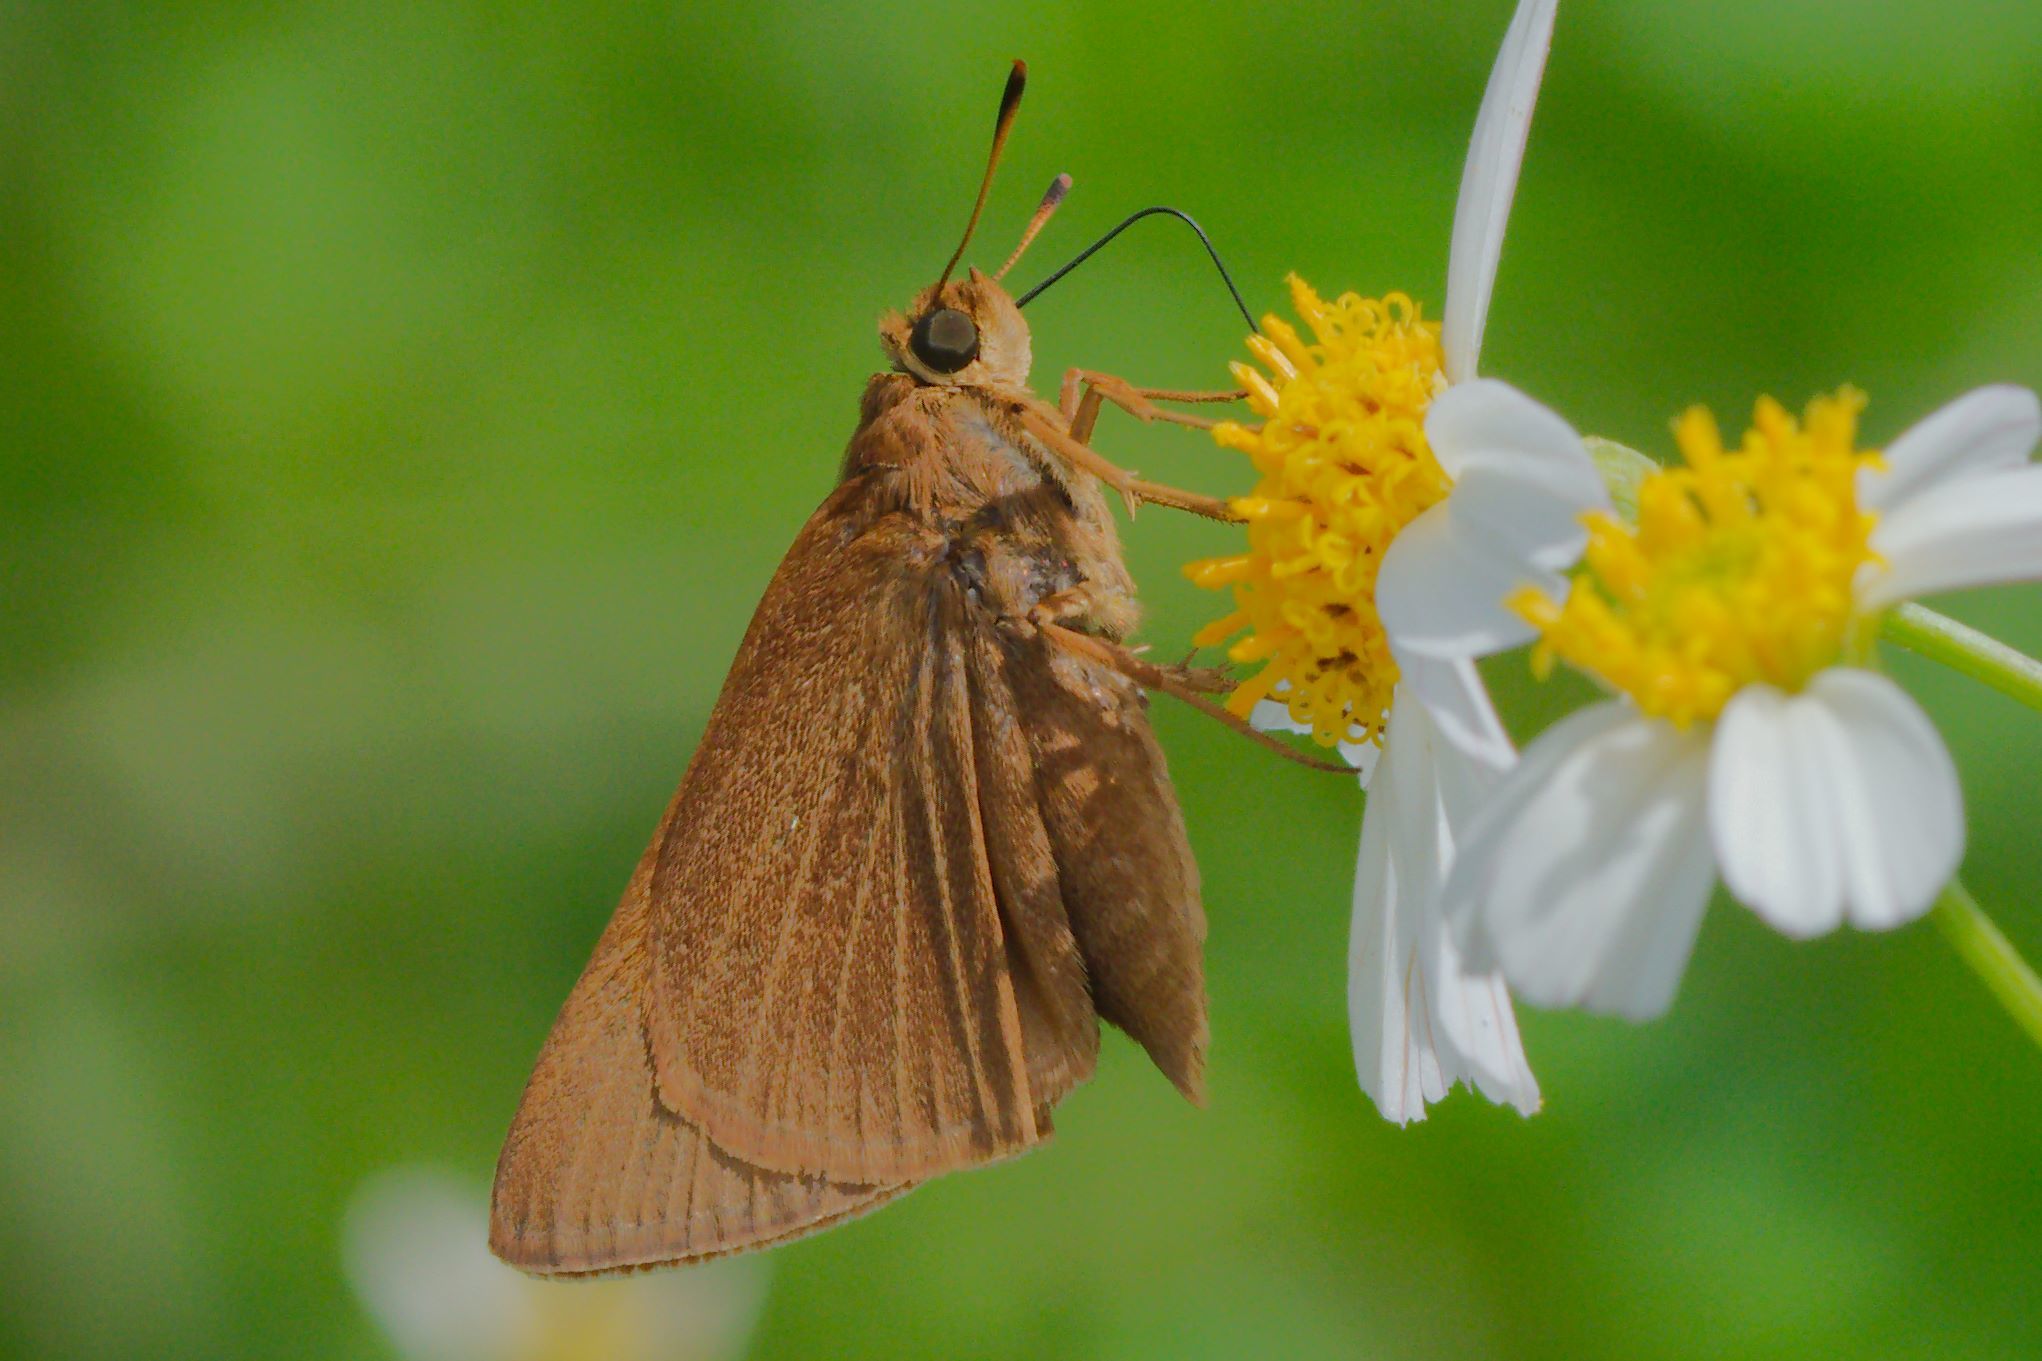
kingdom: Animalia
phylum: Arthropoda
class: Insecta
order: Lepidoptera
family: Hesperiidae
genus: Euphyes
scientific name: Euphyes pilatka
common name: Palatka skipper
